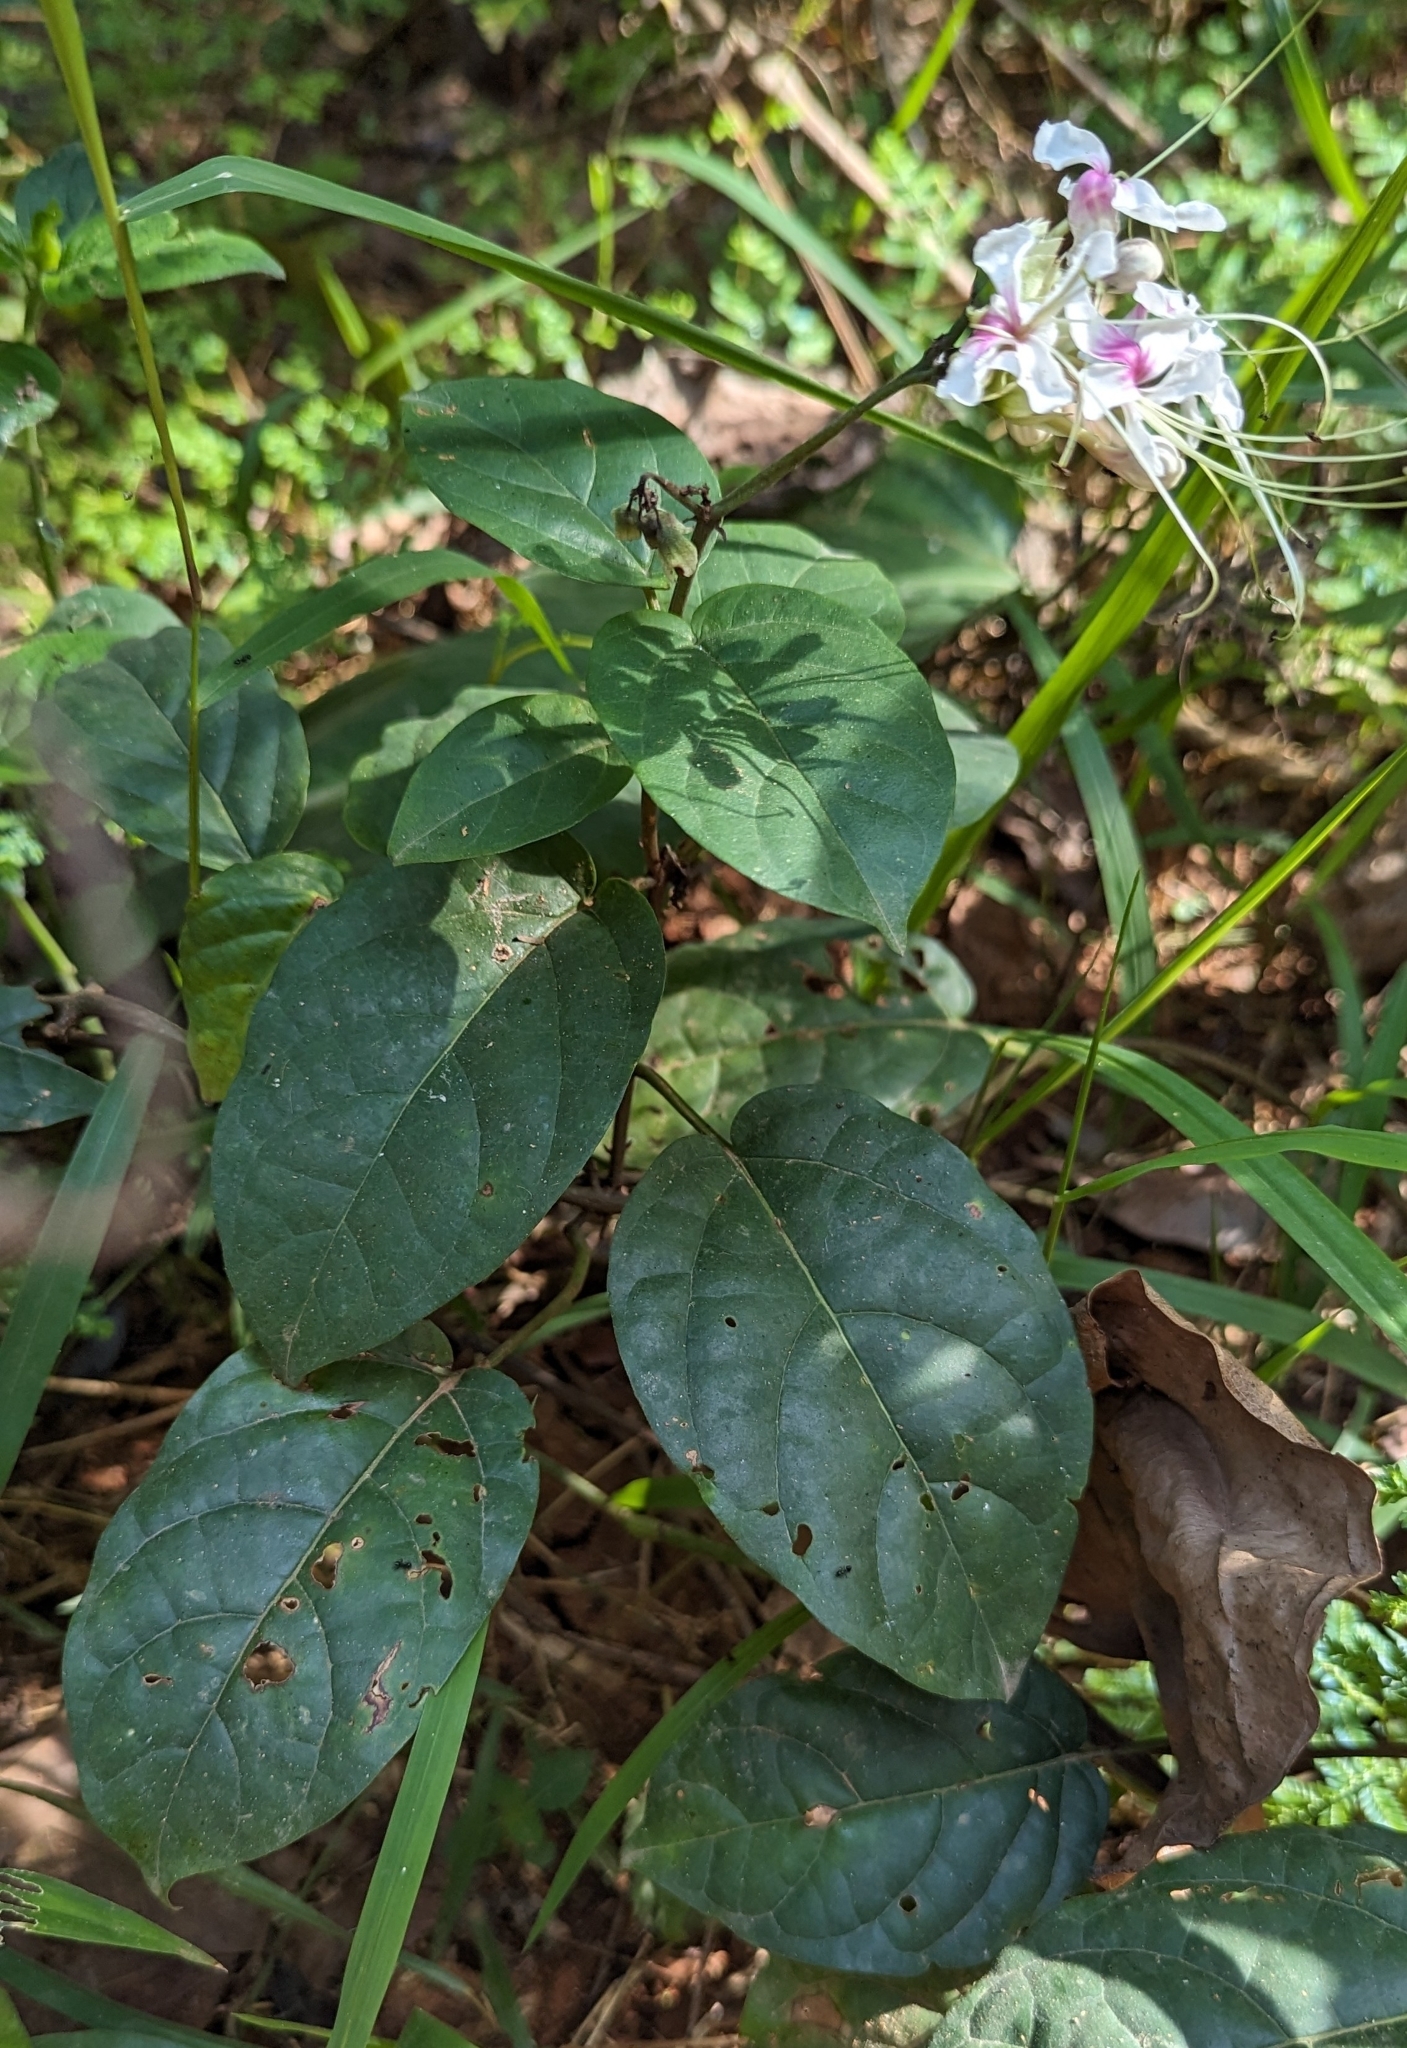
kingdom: Plantae
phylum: Tracheophyta
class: Magnoliopsida
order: Lamiales
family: Lamiaceae
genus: Clerodendrum
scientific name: Clerodendrum umbellatum
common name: Umbel clerodendrum
